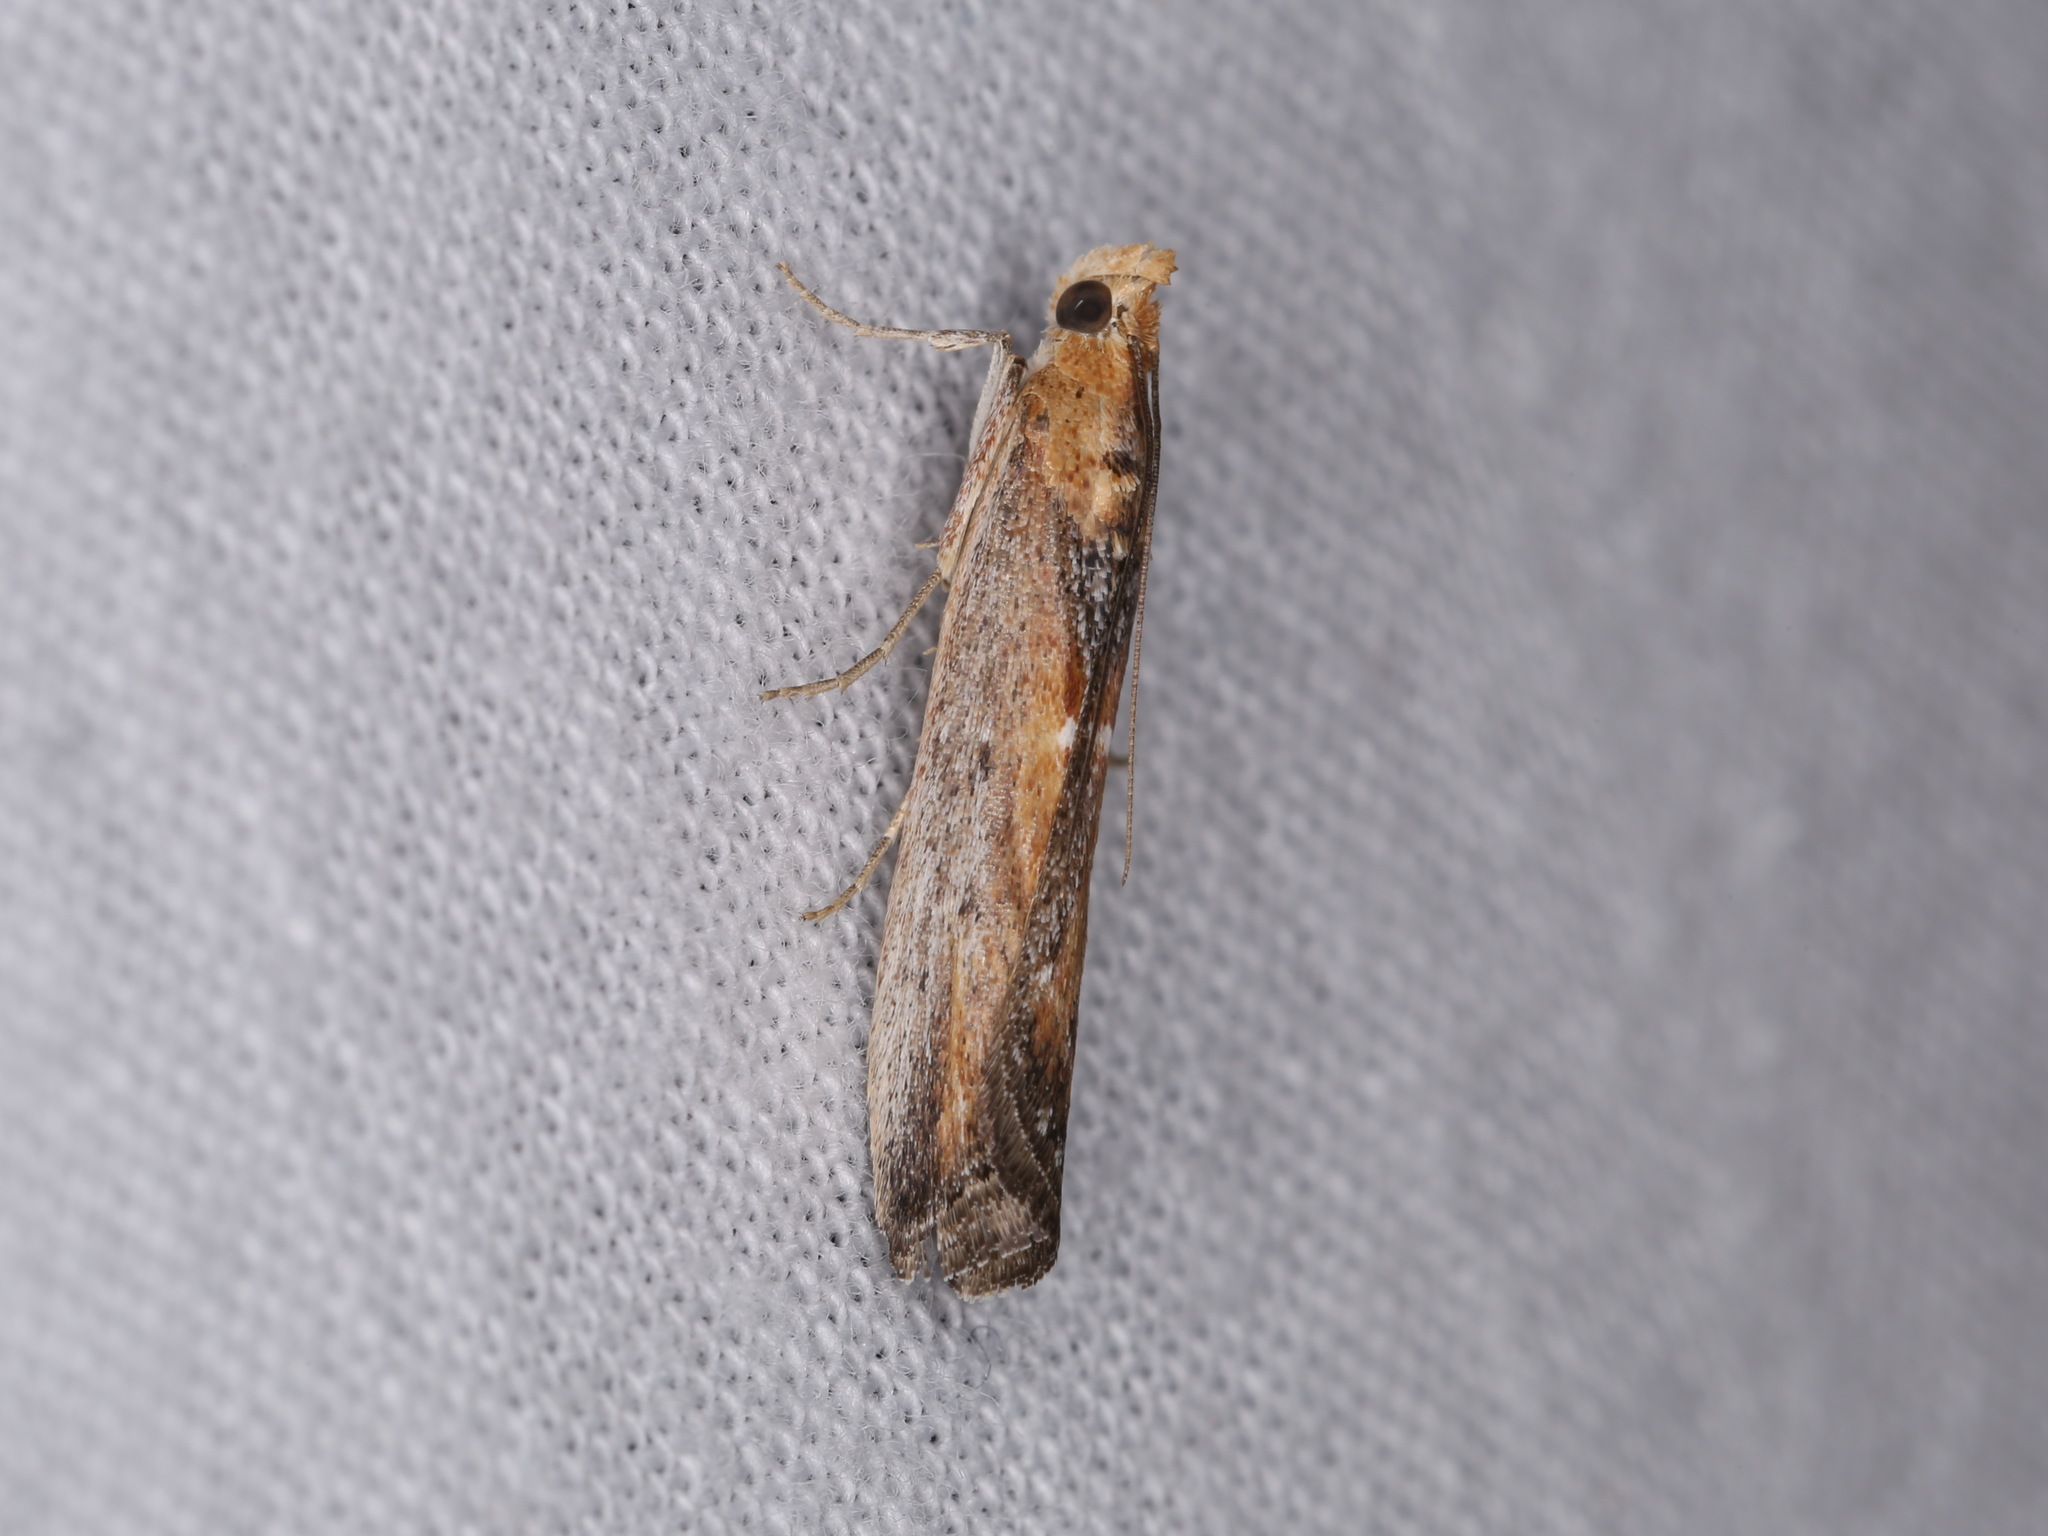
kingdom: Animalia
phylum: Arthropoda
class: Insecta
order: Lepidoptera
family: Pyralidae
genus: Morosaphycita
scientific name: Morosaphycita oculiferella
